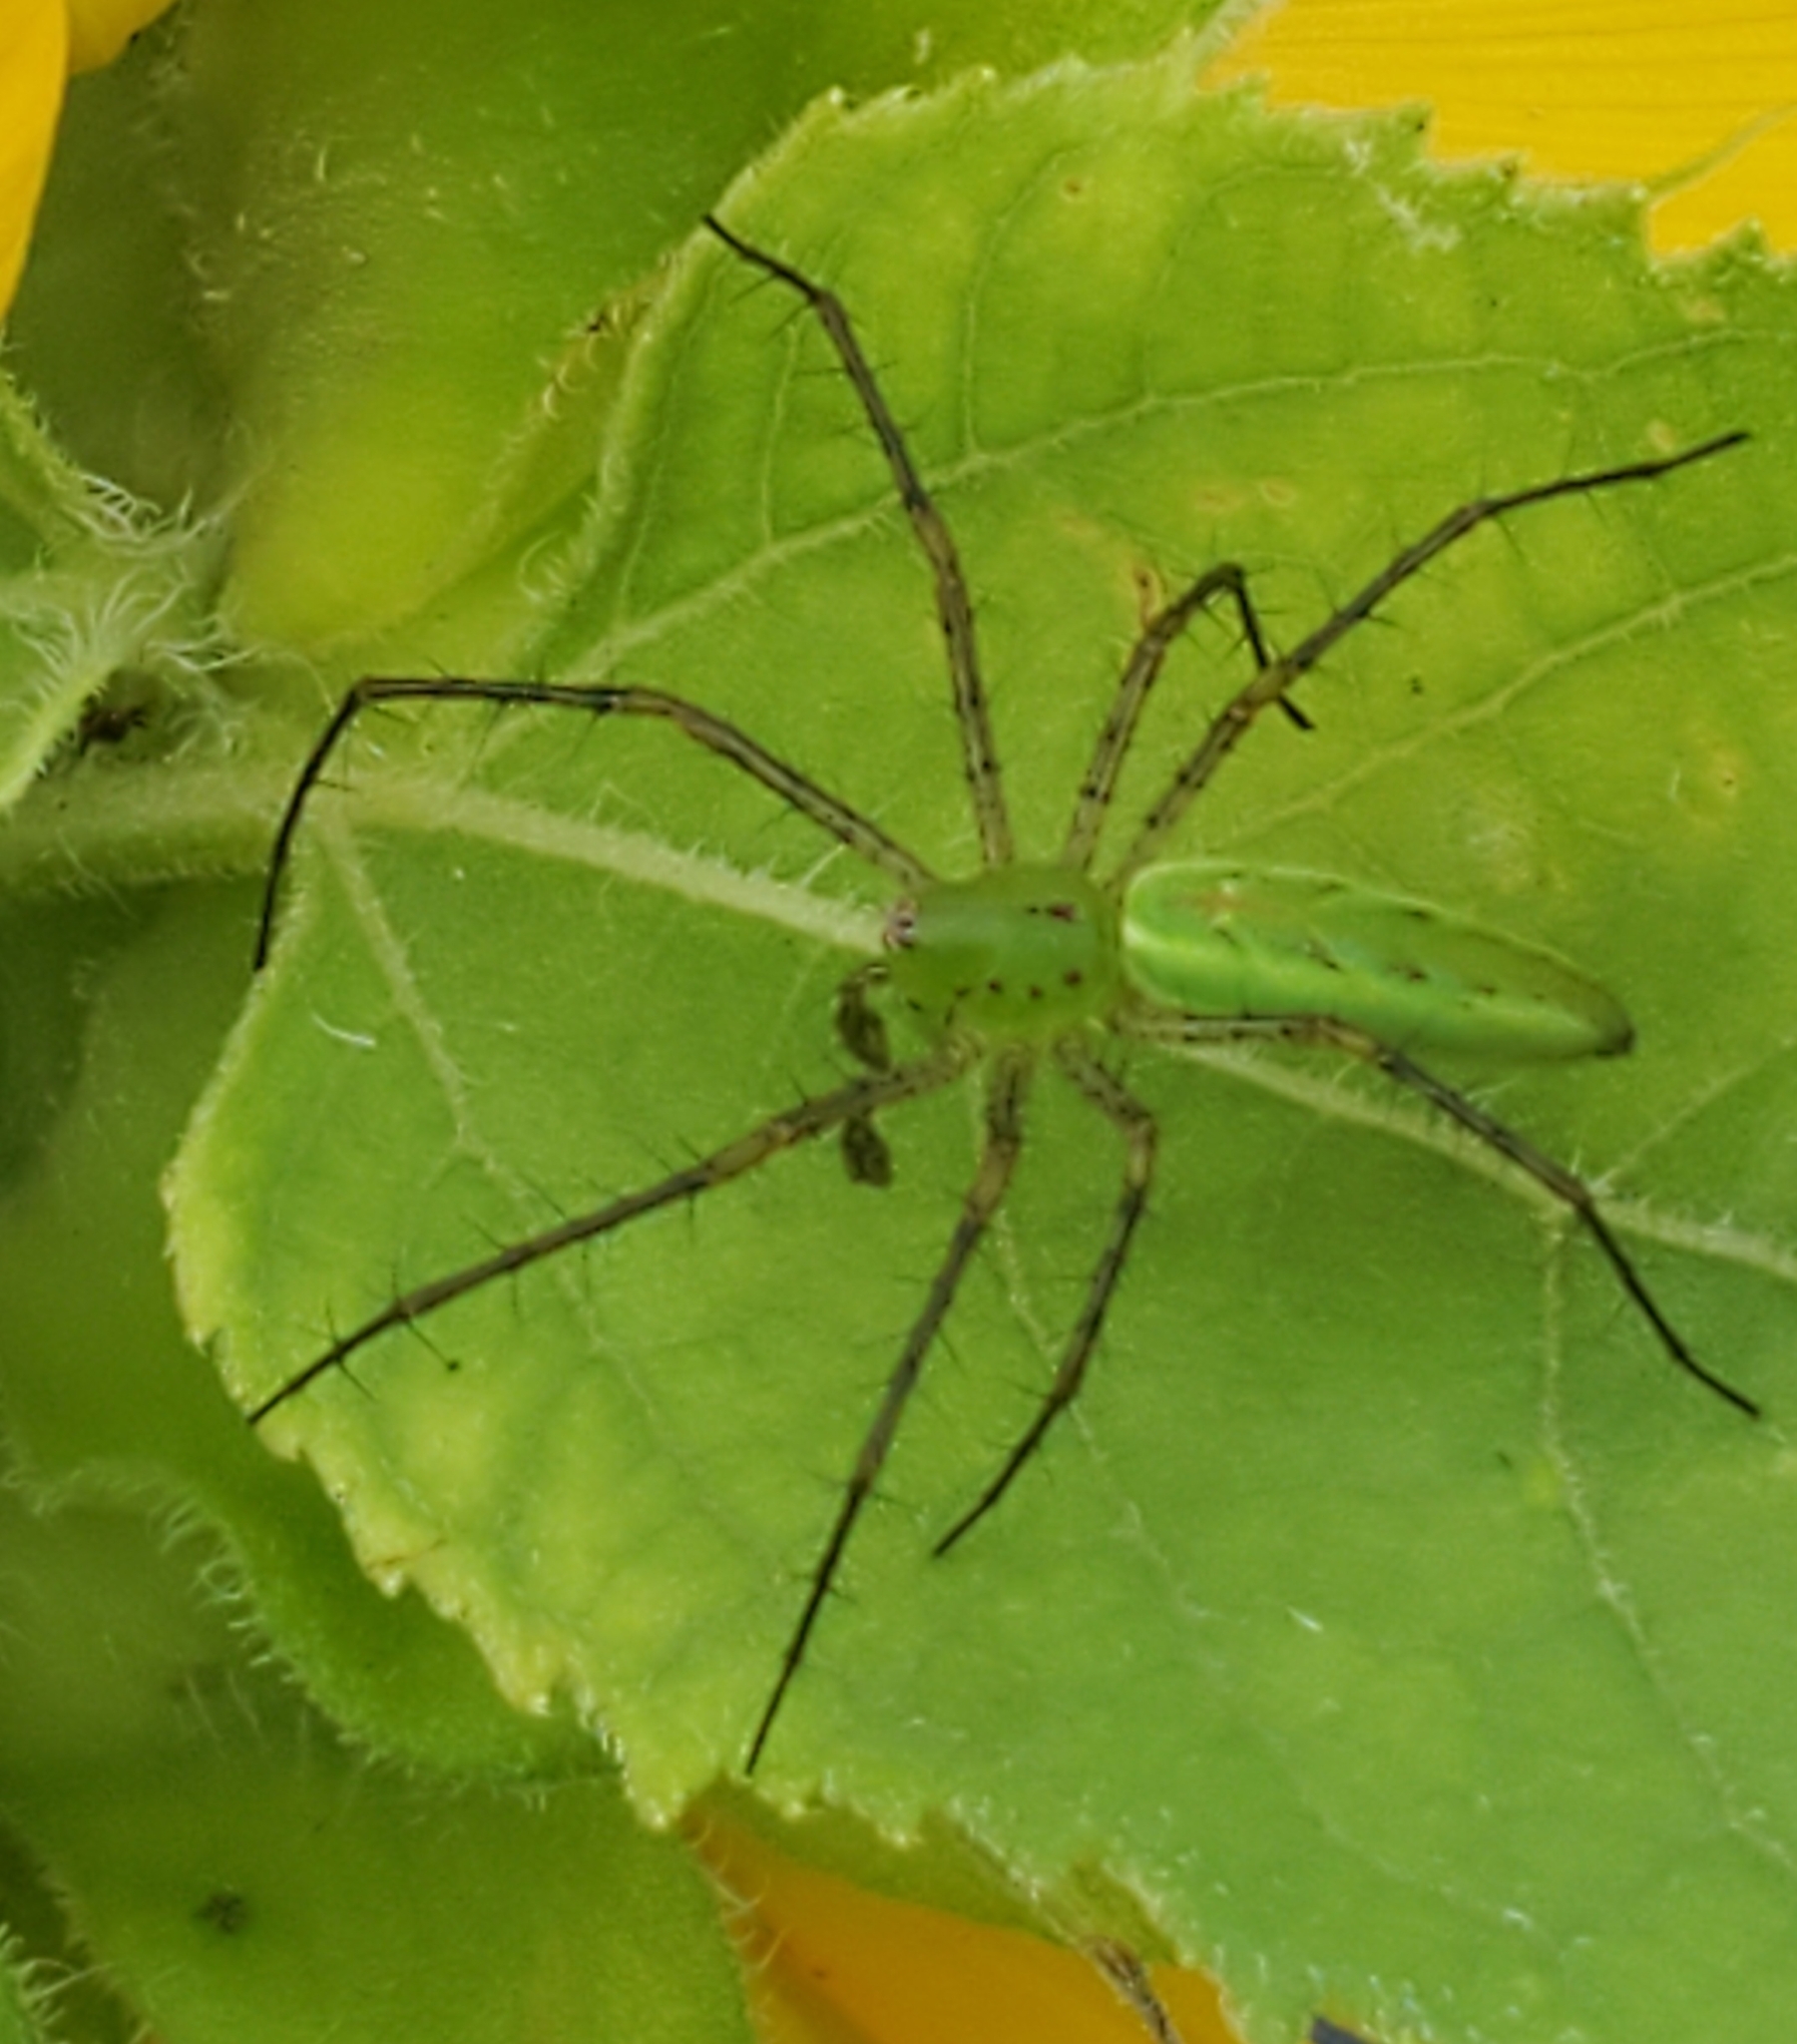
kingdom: Animalia
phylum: Arthropoda
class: Arachnida
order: Araneae
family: Oxyopidae
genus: Peucetia
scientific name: Peucetia viridans
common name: Lynx spiders
